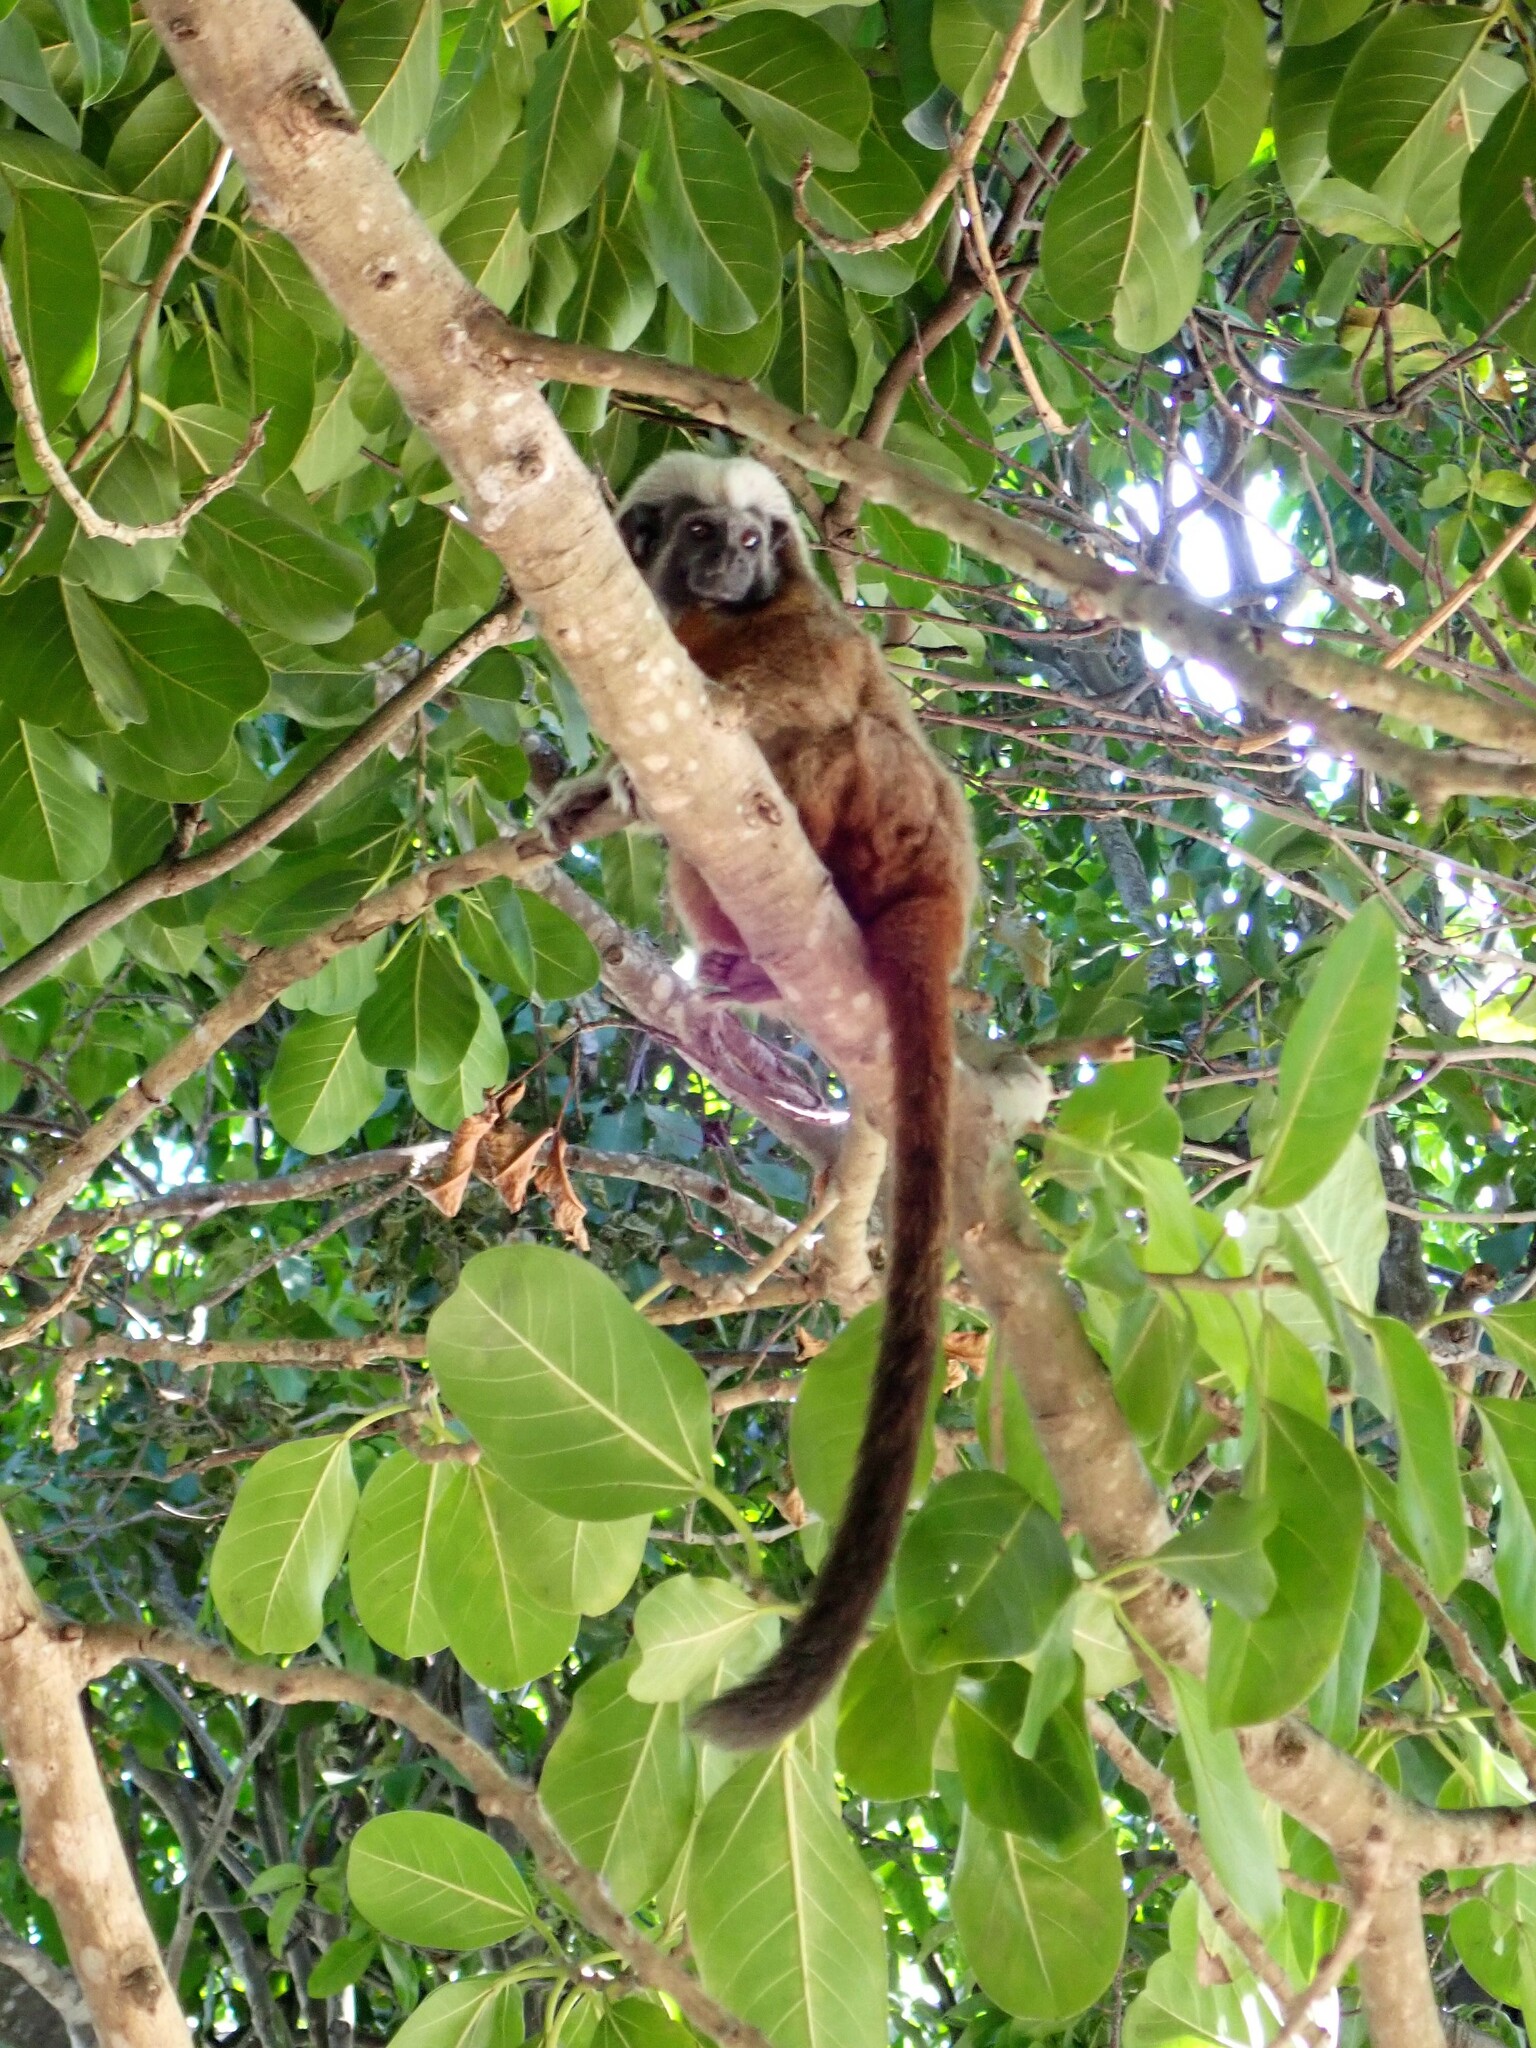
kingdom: Animalia
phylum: Chordata
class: Mammalia
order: Primates
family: Callitrichidae
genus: Saguinus
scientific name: Saguinus oedipus
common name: Cottontop tamarin
